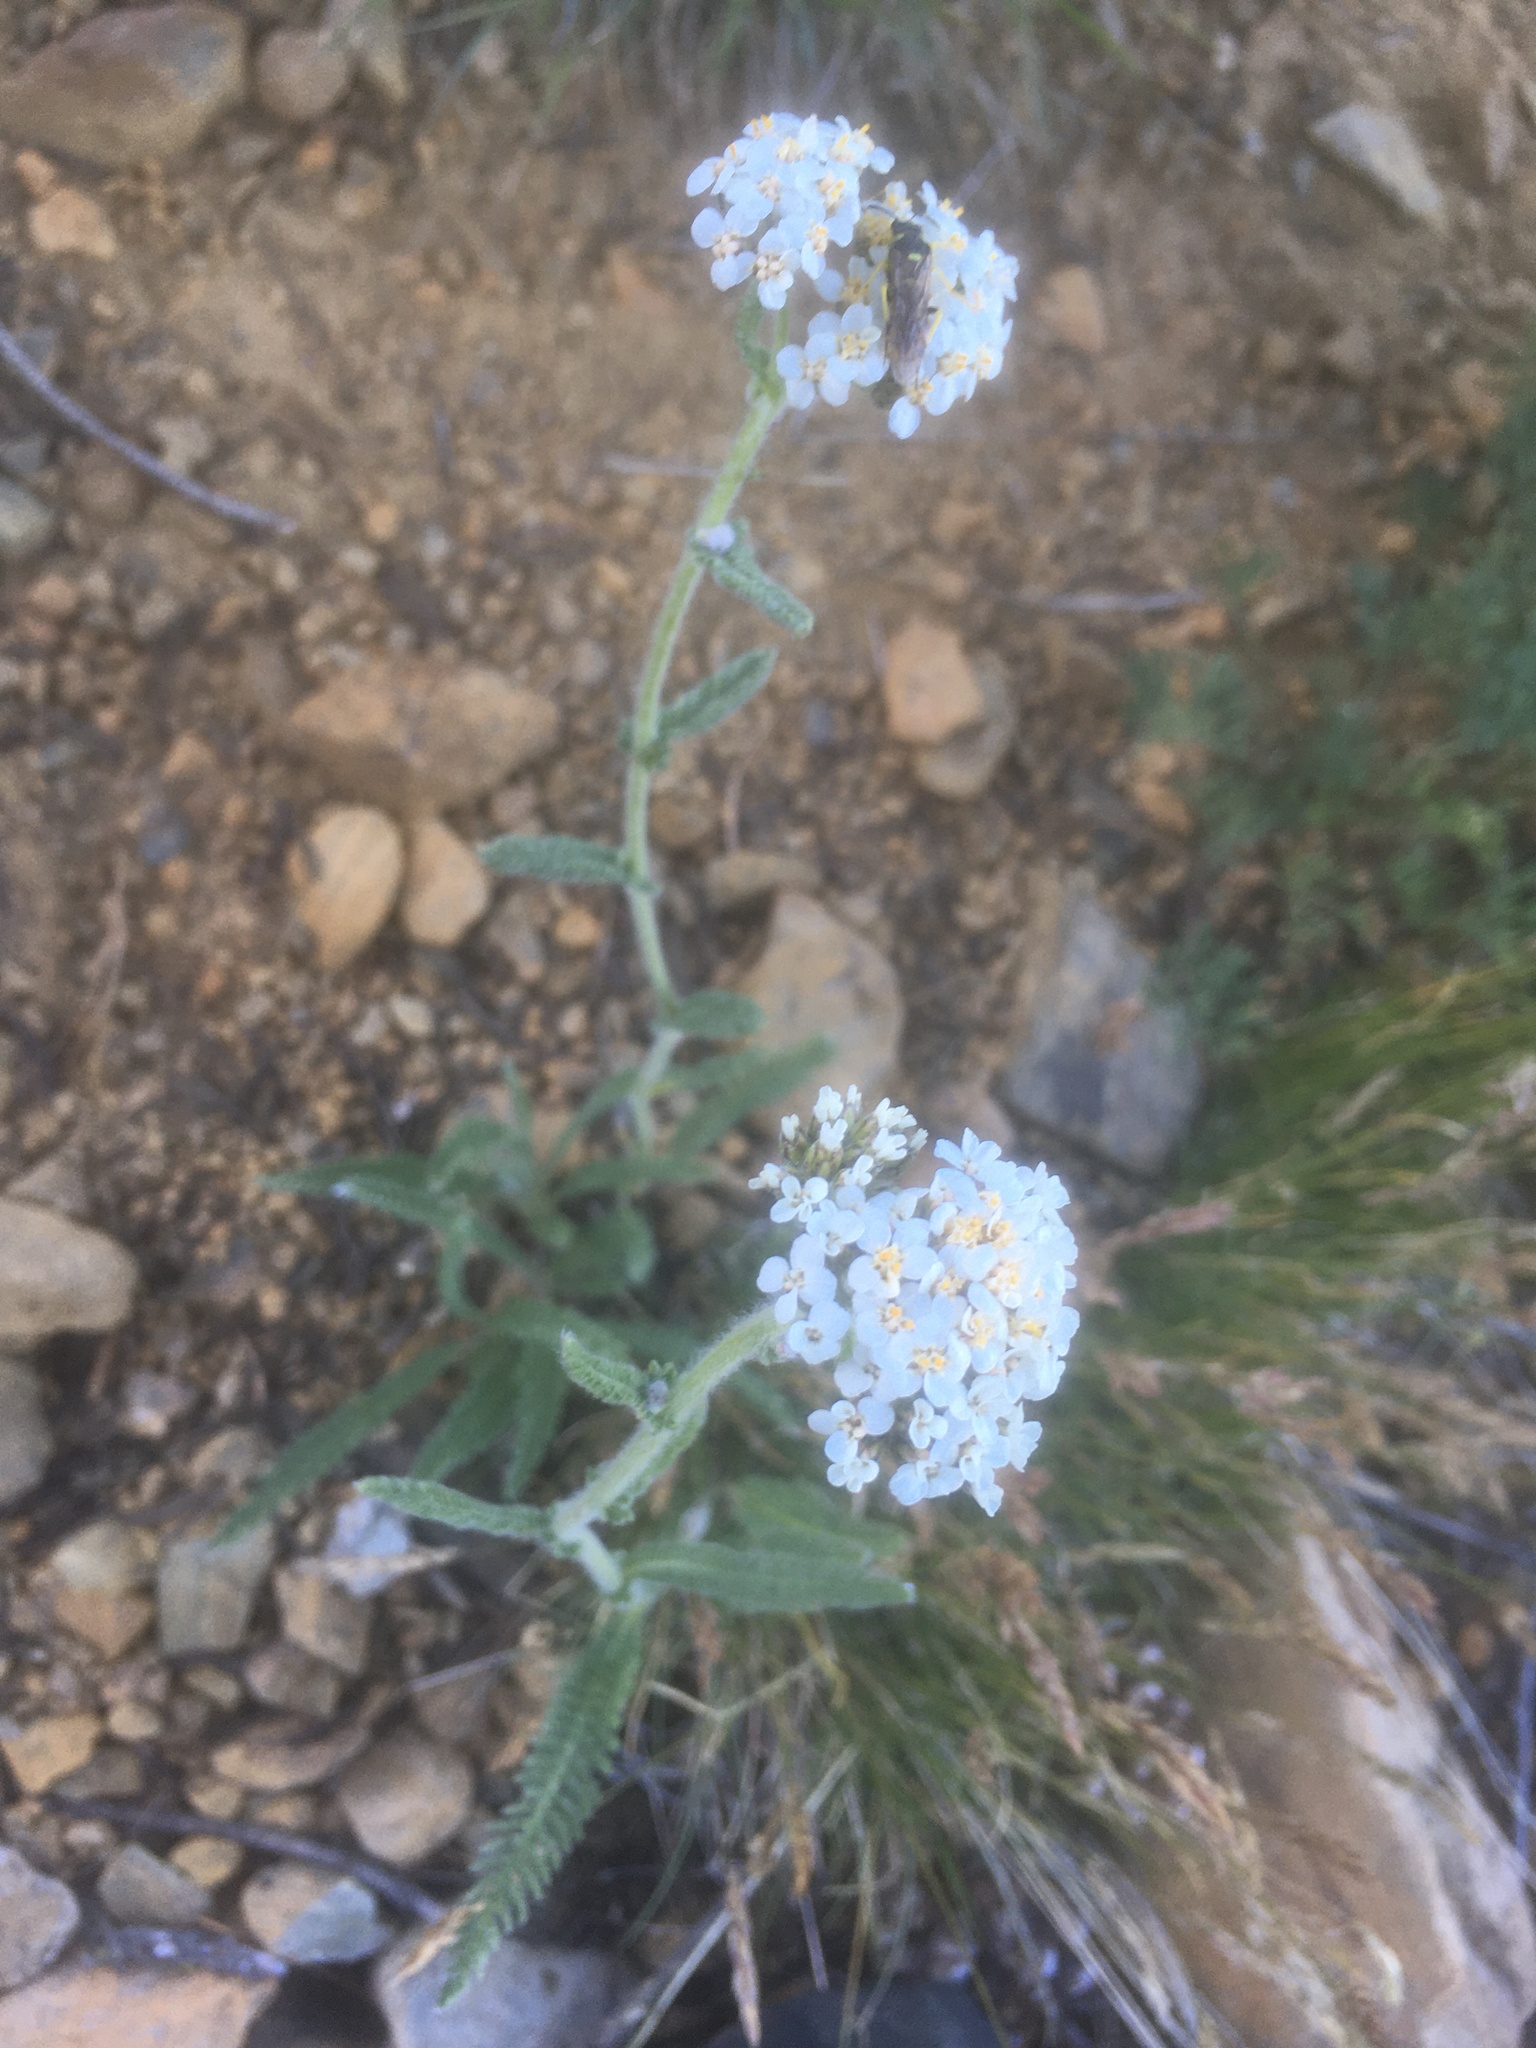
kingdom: Plantae
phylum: Tracheophyta
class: Magnoliopsida
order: Asterales
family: Asteraceae
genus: Achillea
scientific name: Achillea millefolium
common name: Yarrow
